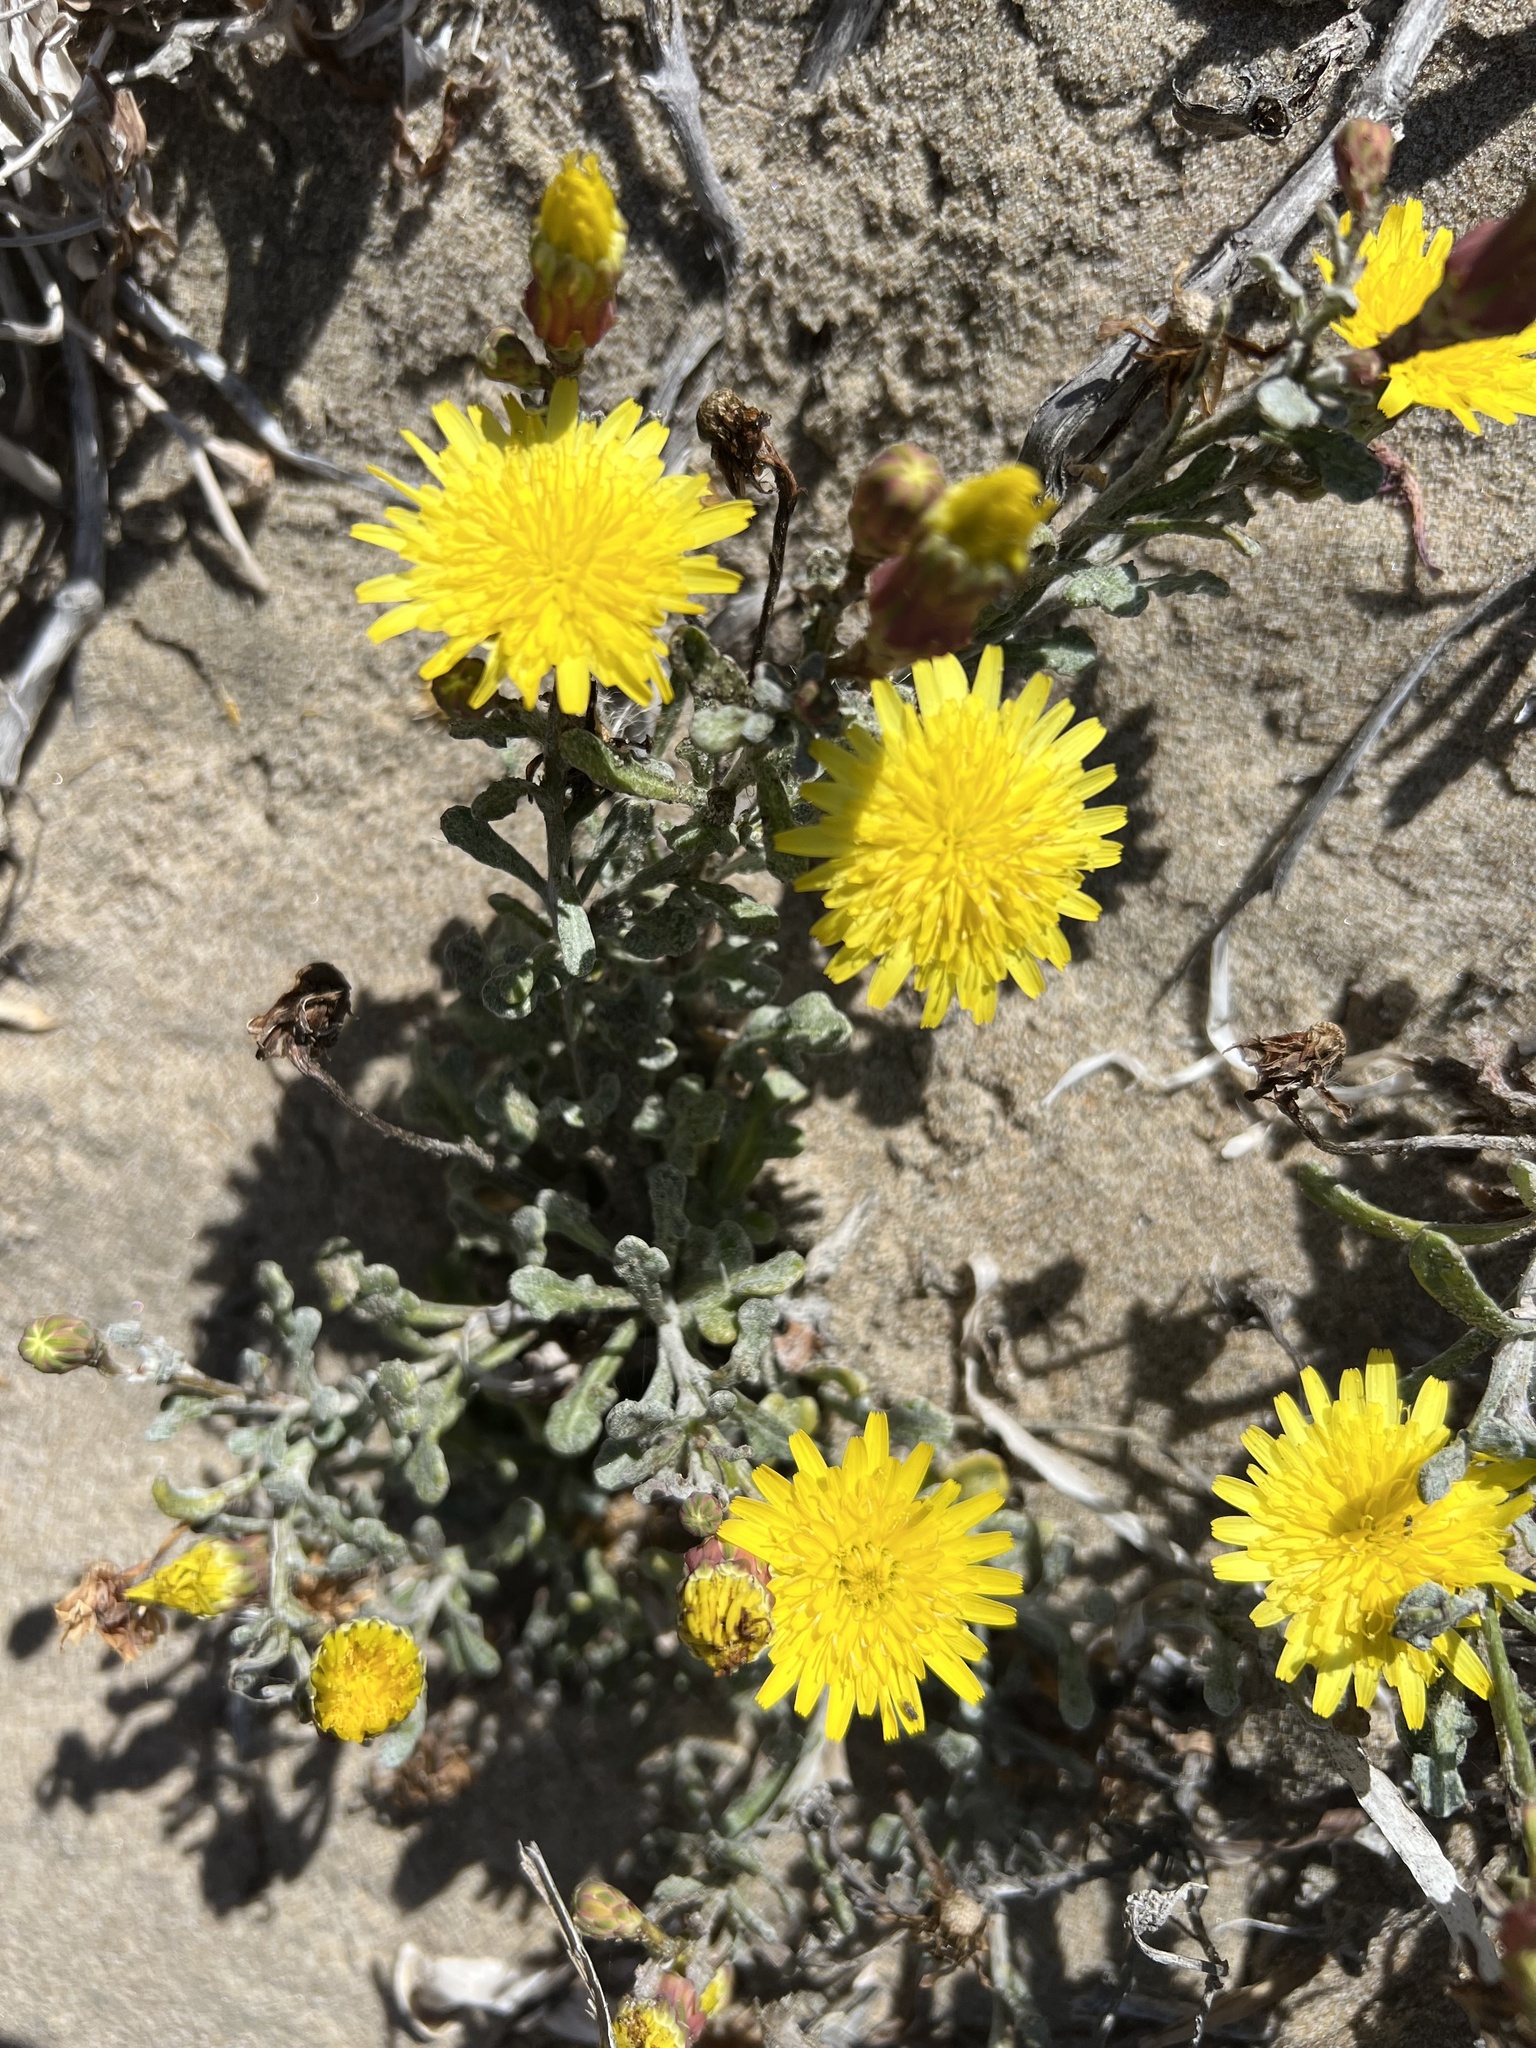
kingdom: Plantae
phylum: Tracheophyta
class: Magnoliopsida
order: Asterales
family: Asteraceae
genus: Malacothrix
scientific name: Malacothrix incana
